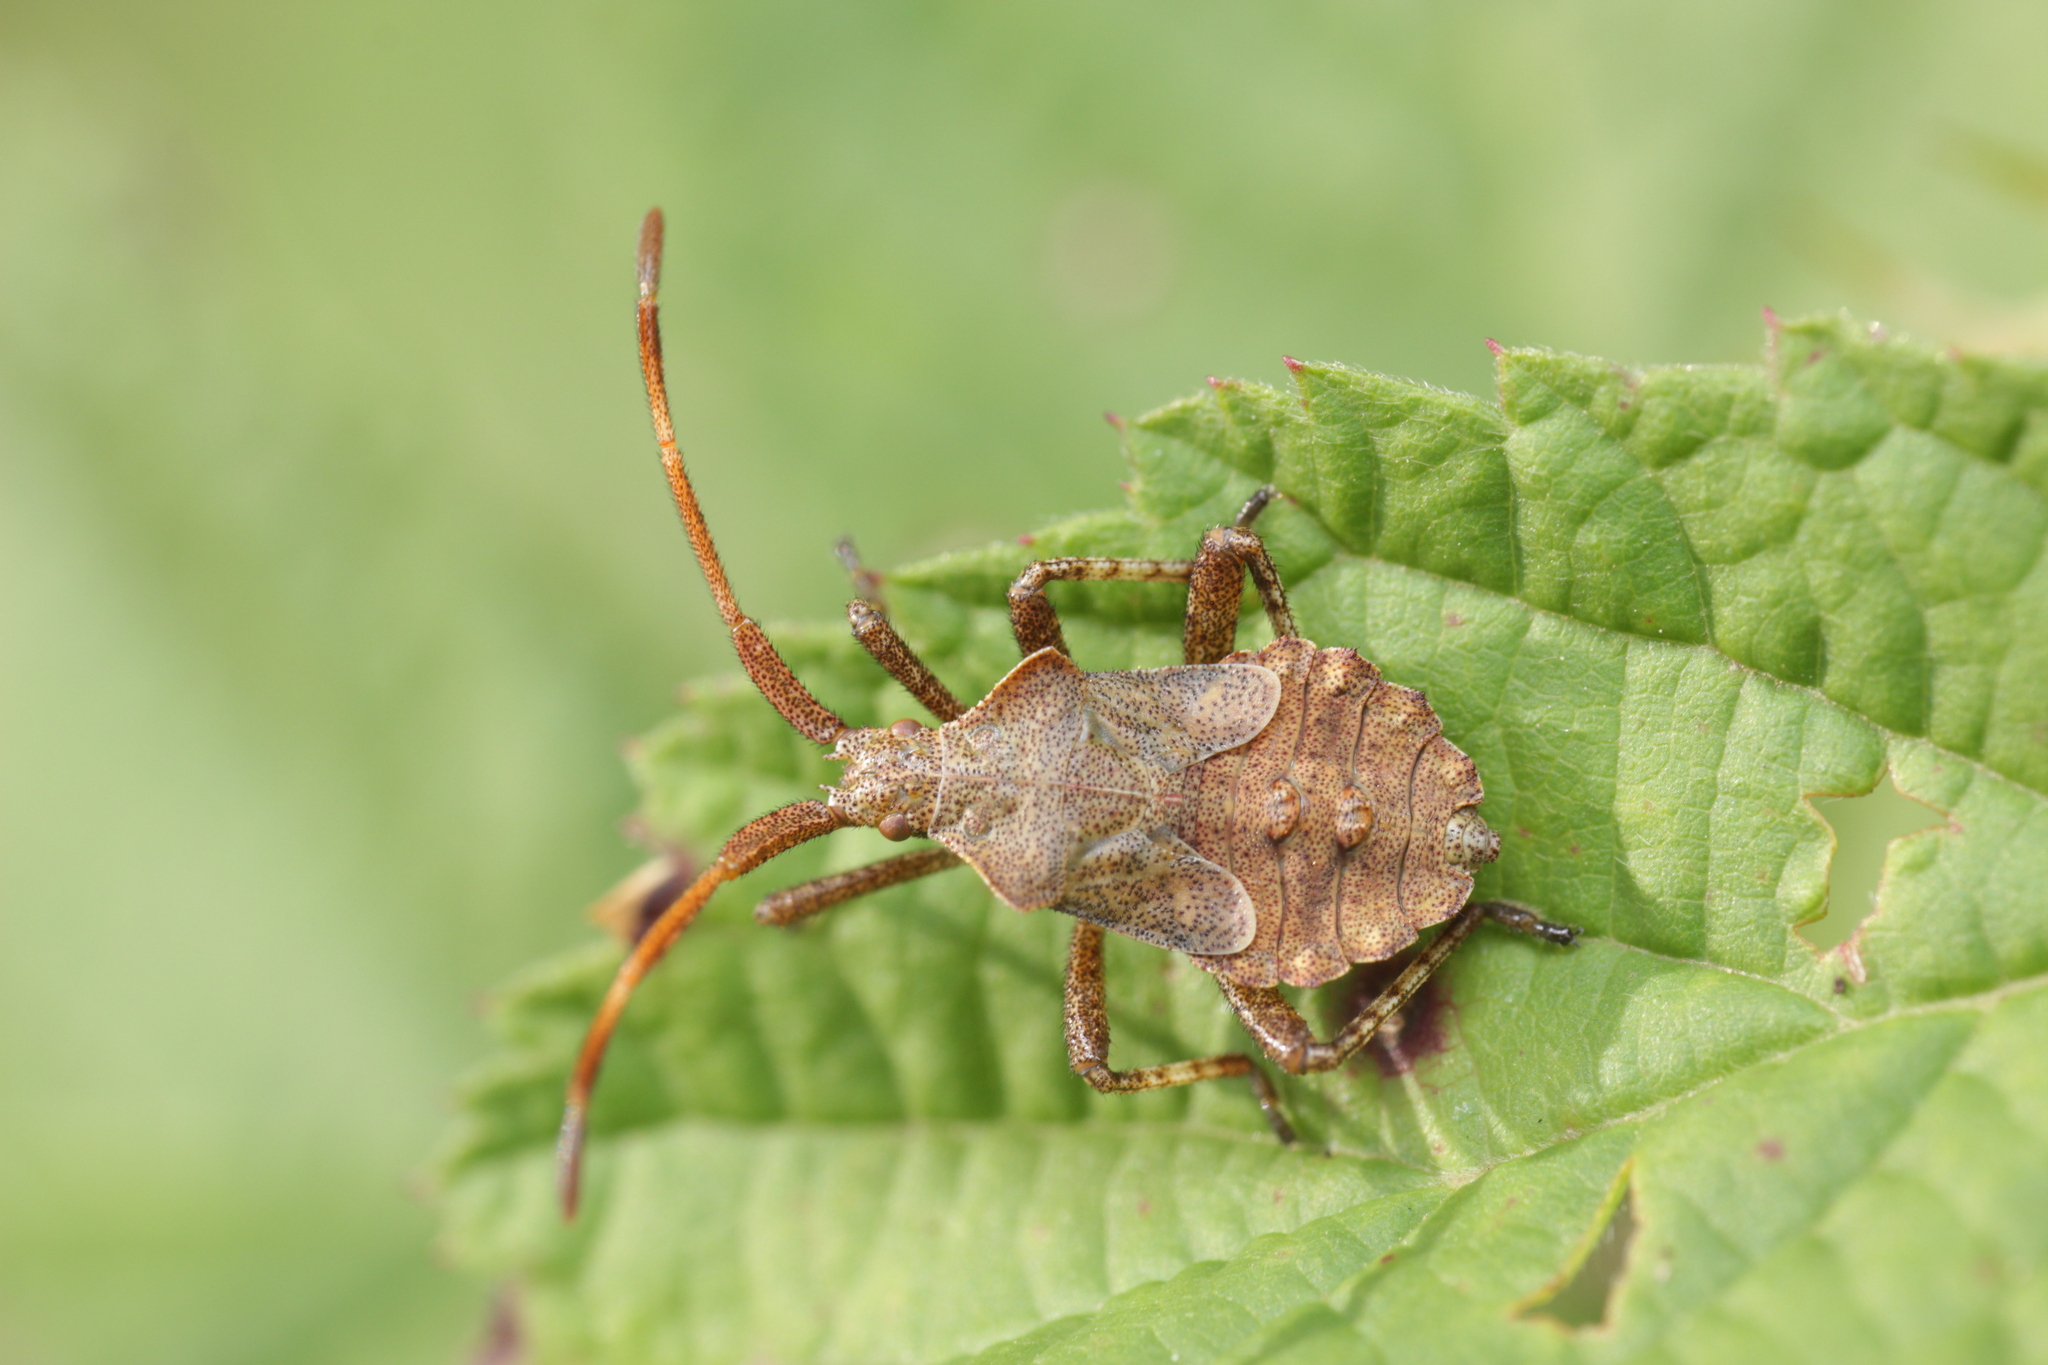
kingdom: Animalia
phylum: Arthropoda
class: Insecta
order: Hemiptera
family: Coreidae
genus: Coreus
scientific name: Coreus marginatus
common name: Dock bug
